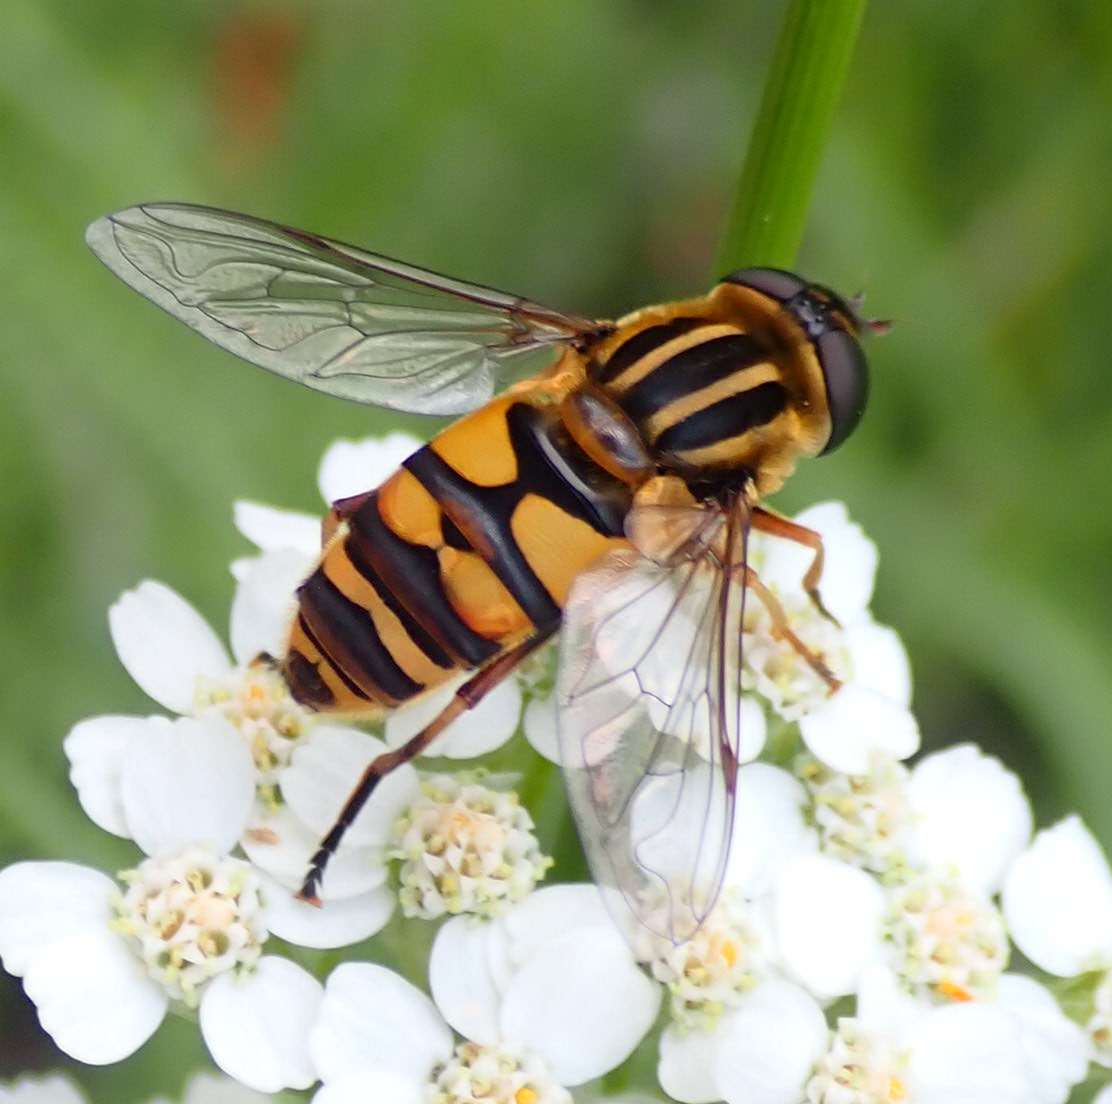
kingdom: Animalia
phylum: Arthropoda
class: Insecta
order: Diptera
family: Syrphidae
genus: Helophilus
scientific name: Helophilus fasciatus
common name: Narrow-headed marsh fly
